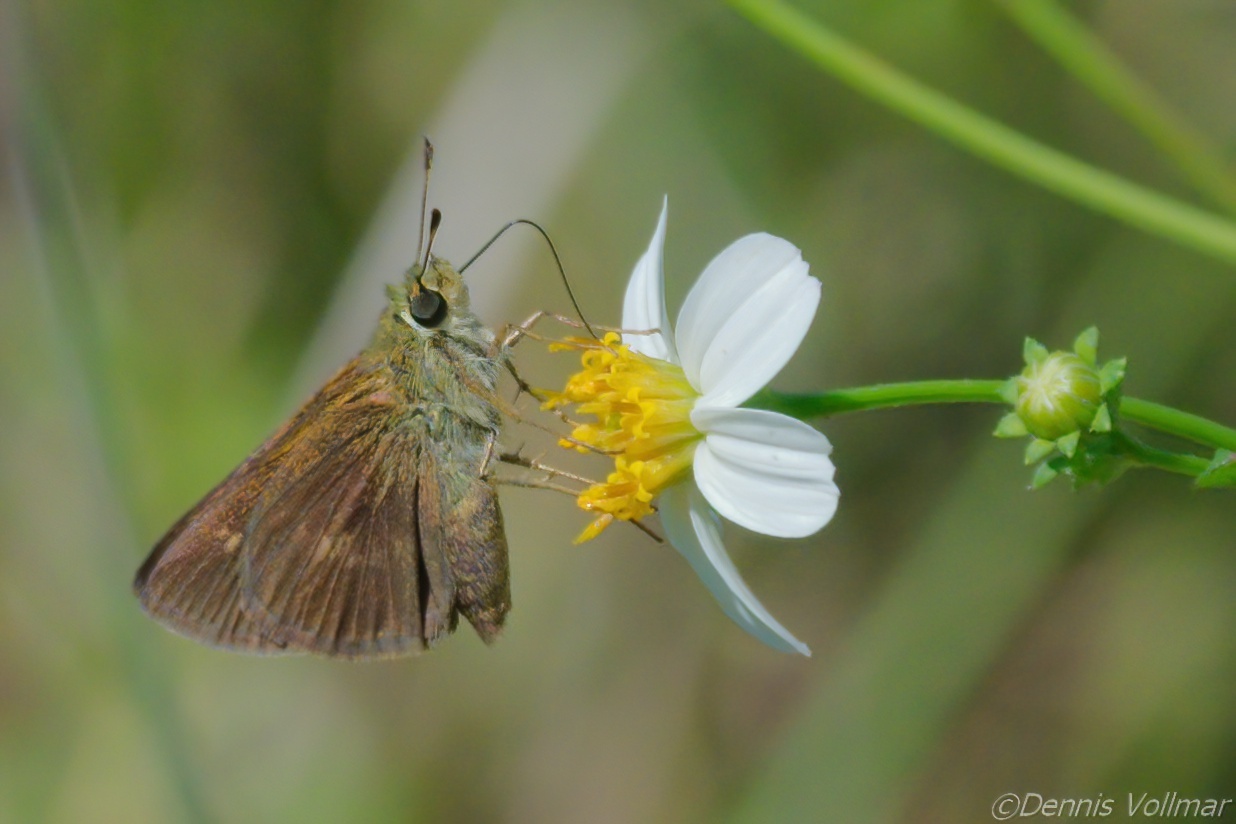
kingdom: Animalia
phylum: Arthropoda
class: Insecta
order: Lepidoptera
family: Hesperiidae
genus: Polites
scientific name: Polites egeremet
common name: Northern broken-dash
